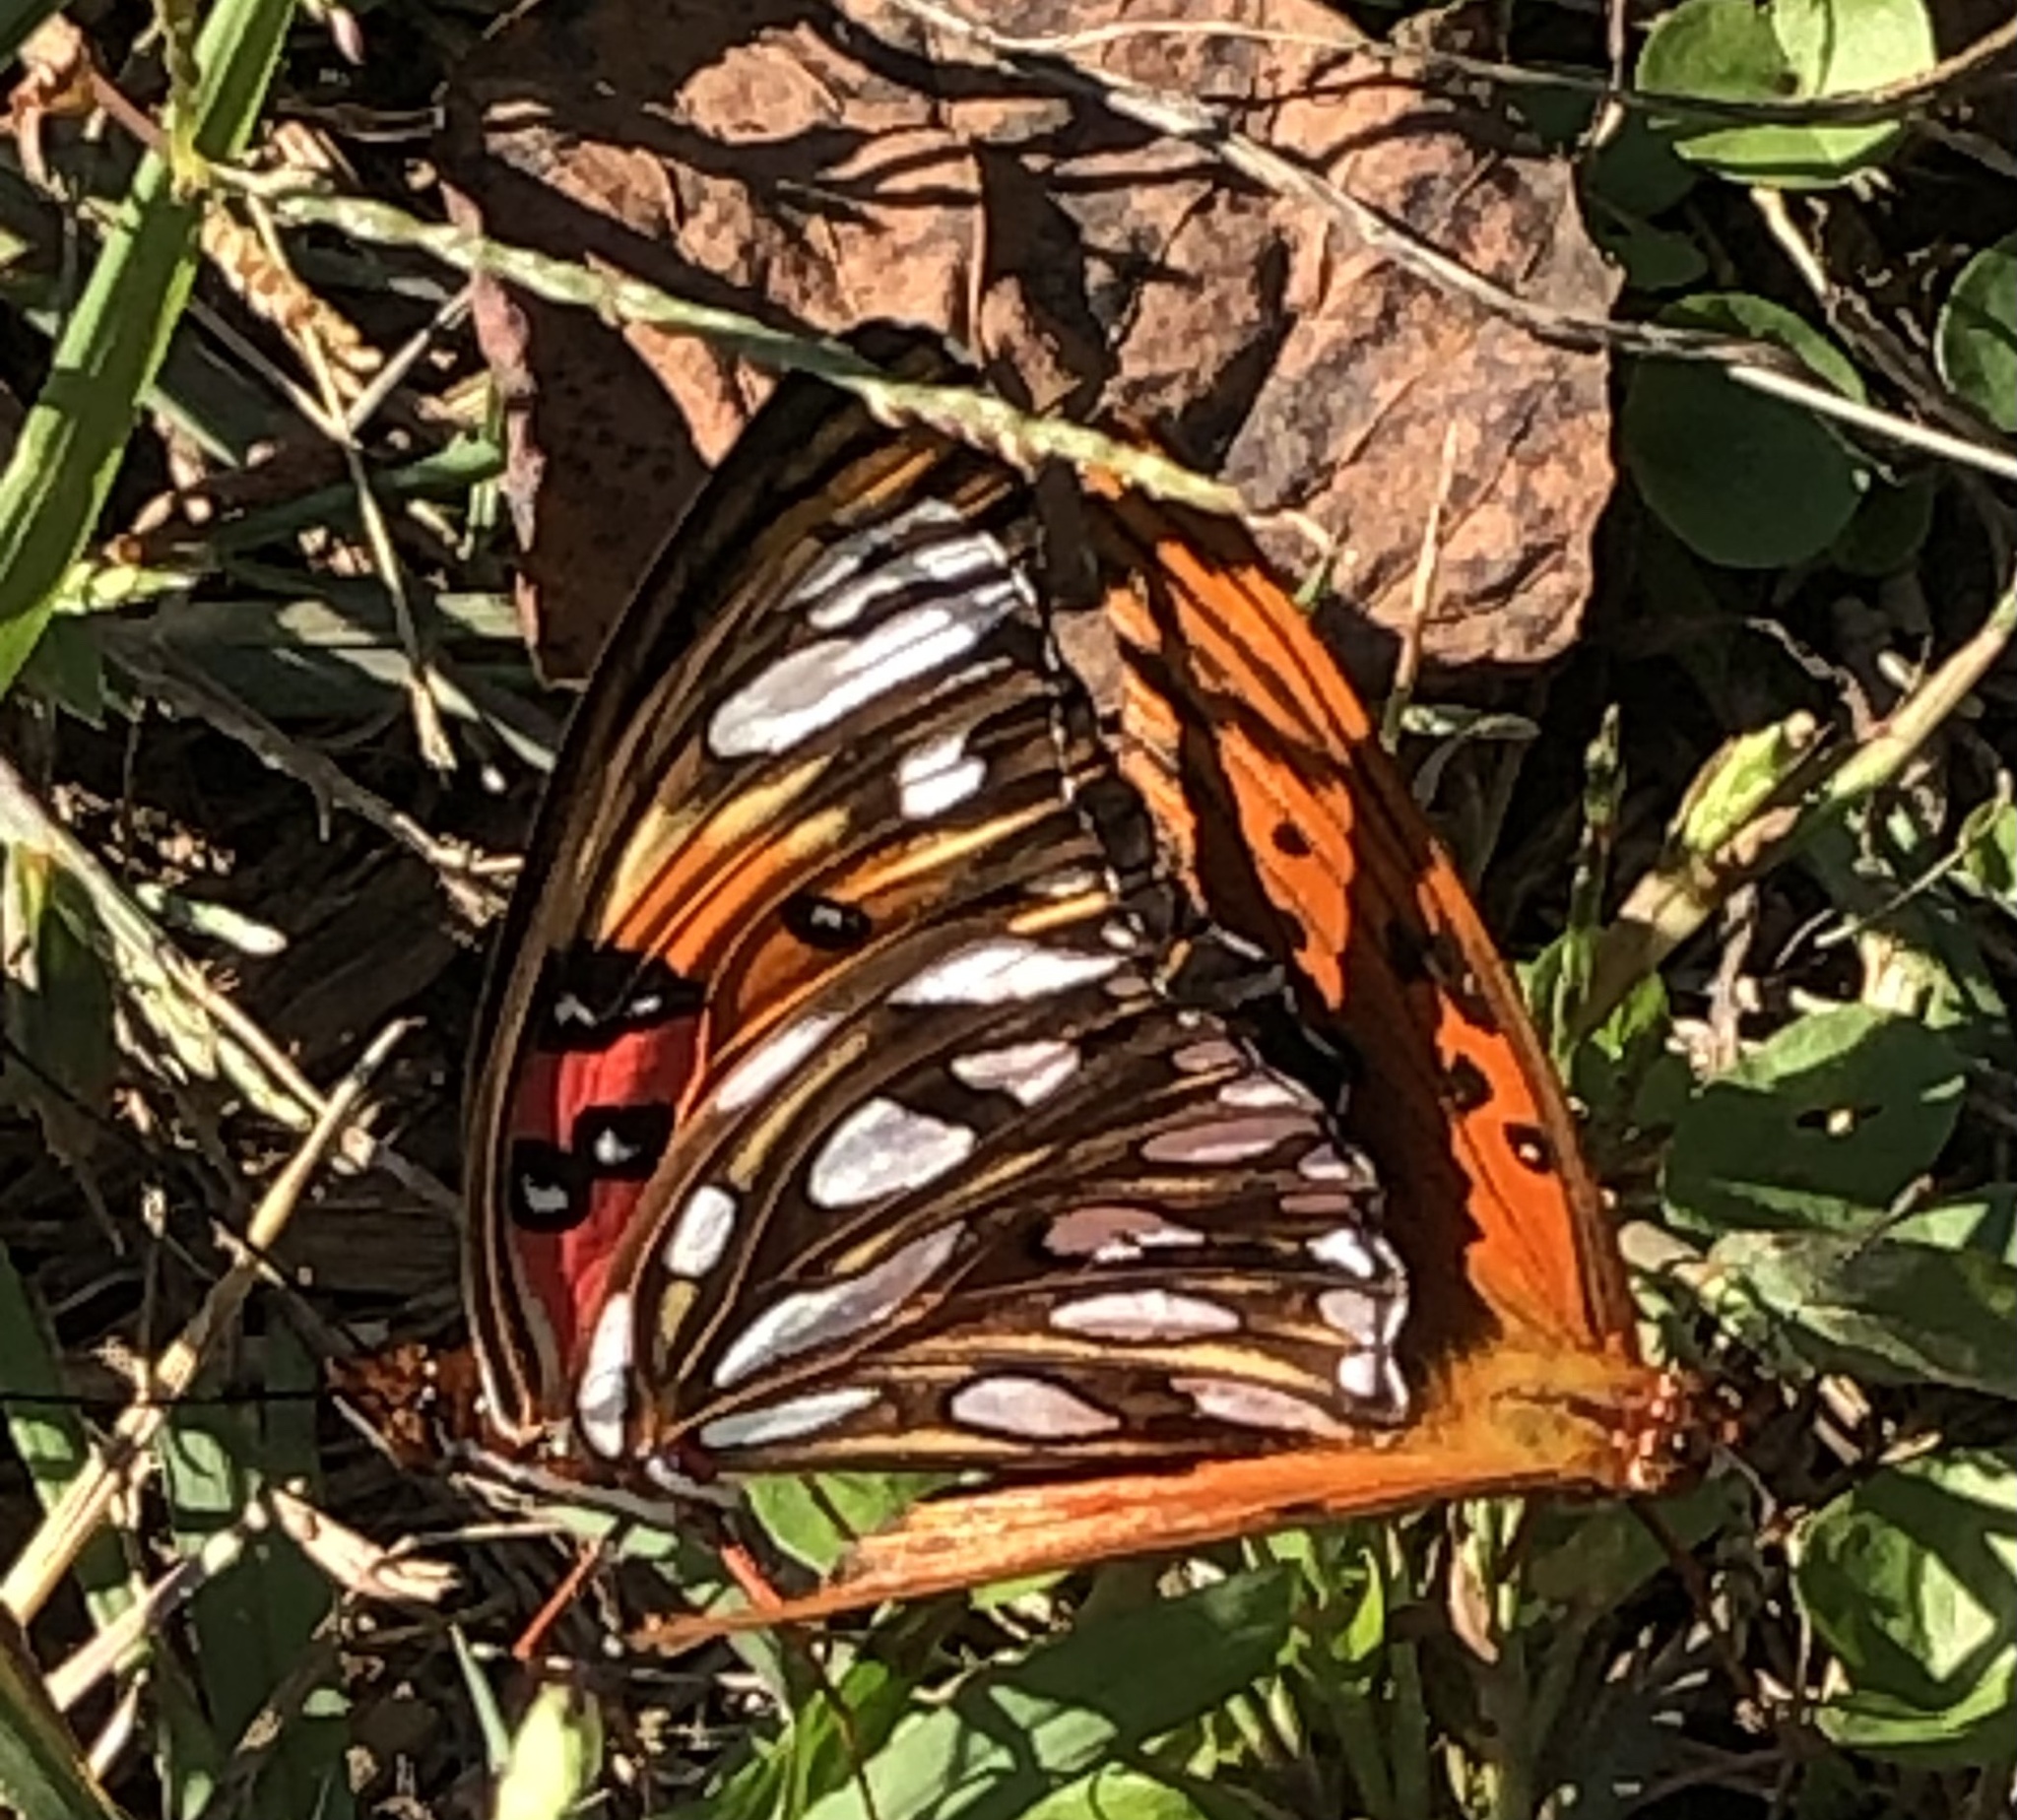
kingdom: Animalia
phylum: Arthropoda
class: Insecta
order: Lepidoptera
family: Nymphalidae
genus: Dione
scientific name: Dione vanillae
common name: Gulf fritillary
